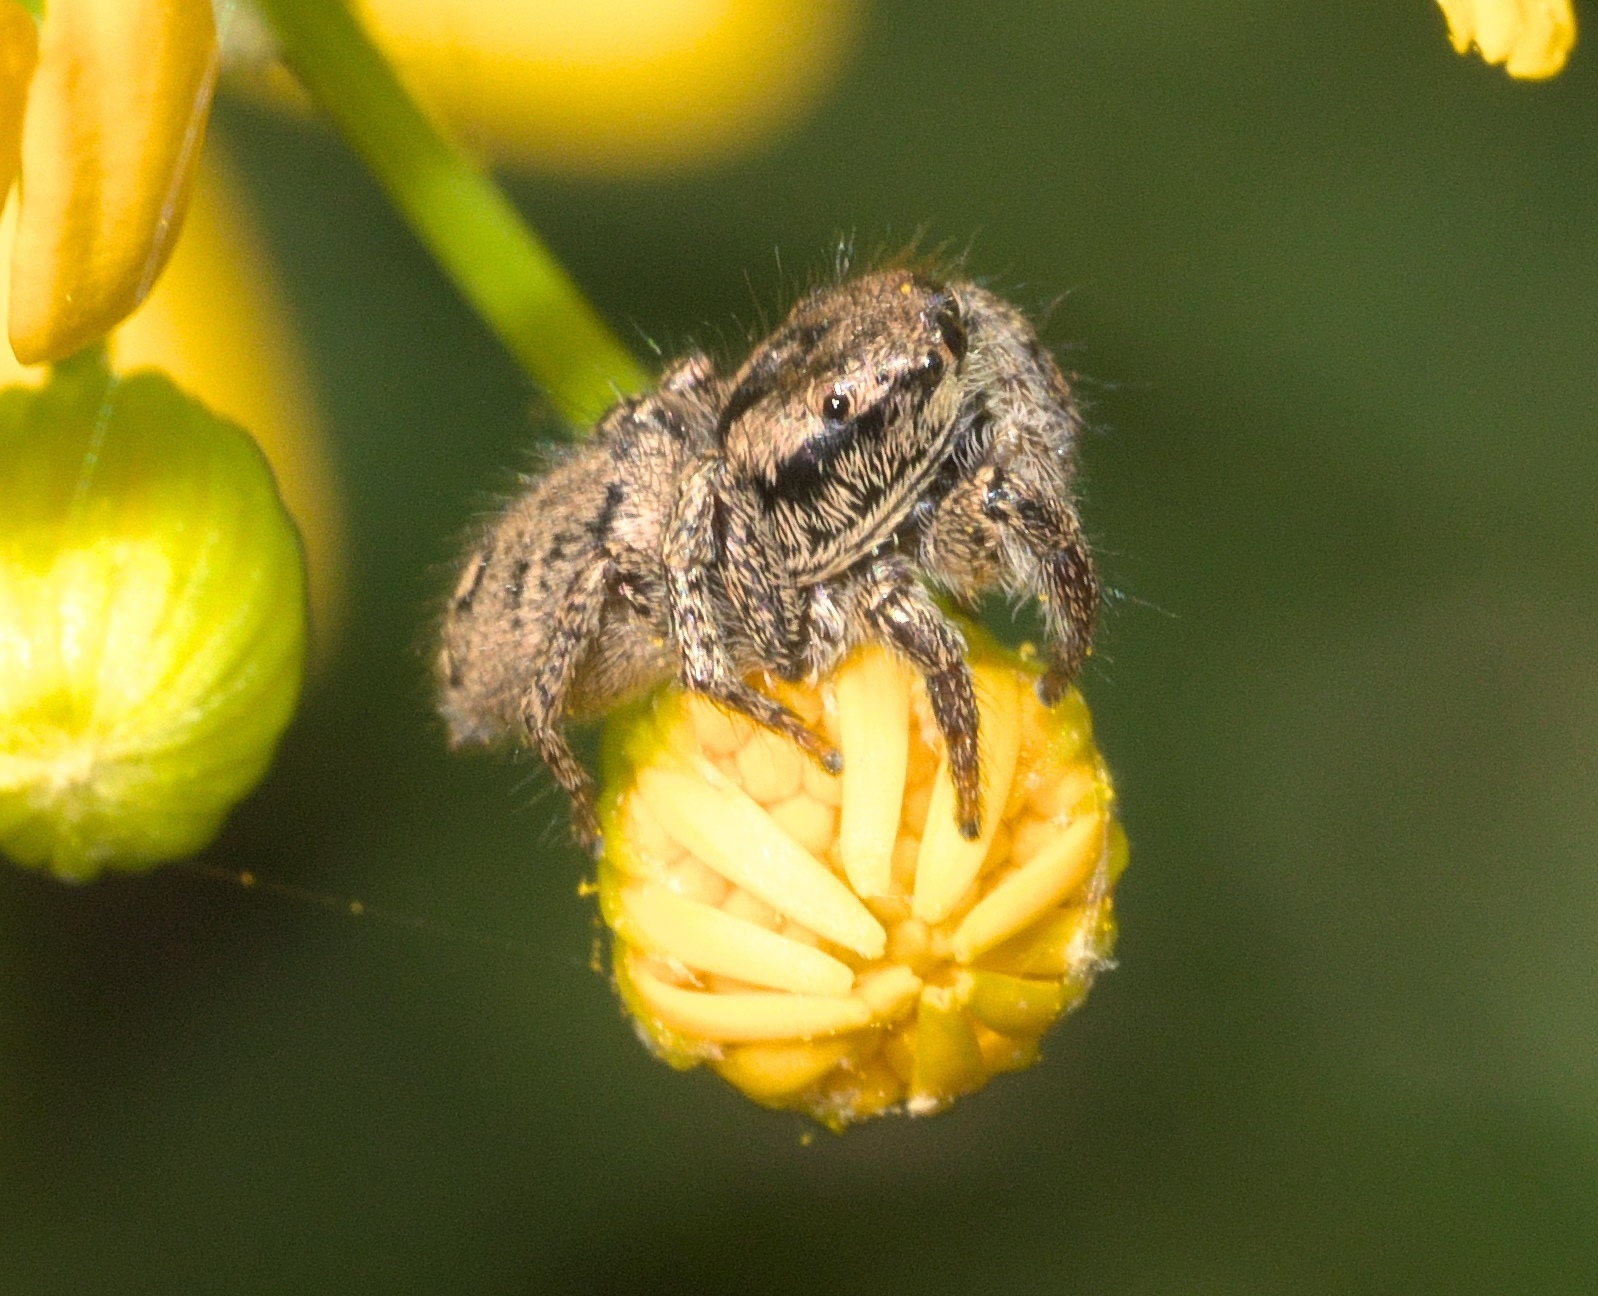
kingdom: Animalia
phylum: Arthropoda
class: Arachnida
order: Araneae
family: Salticidae
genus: Habronattus
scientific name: Habronattus coecatus
